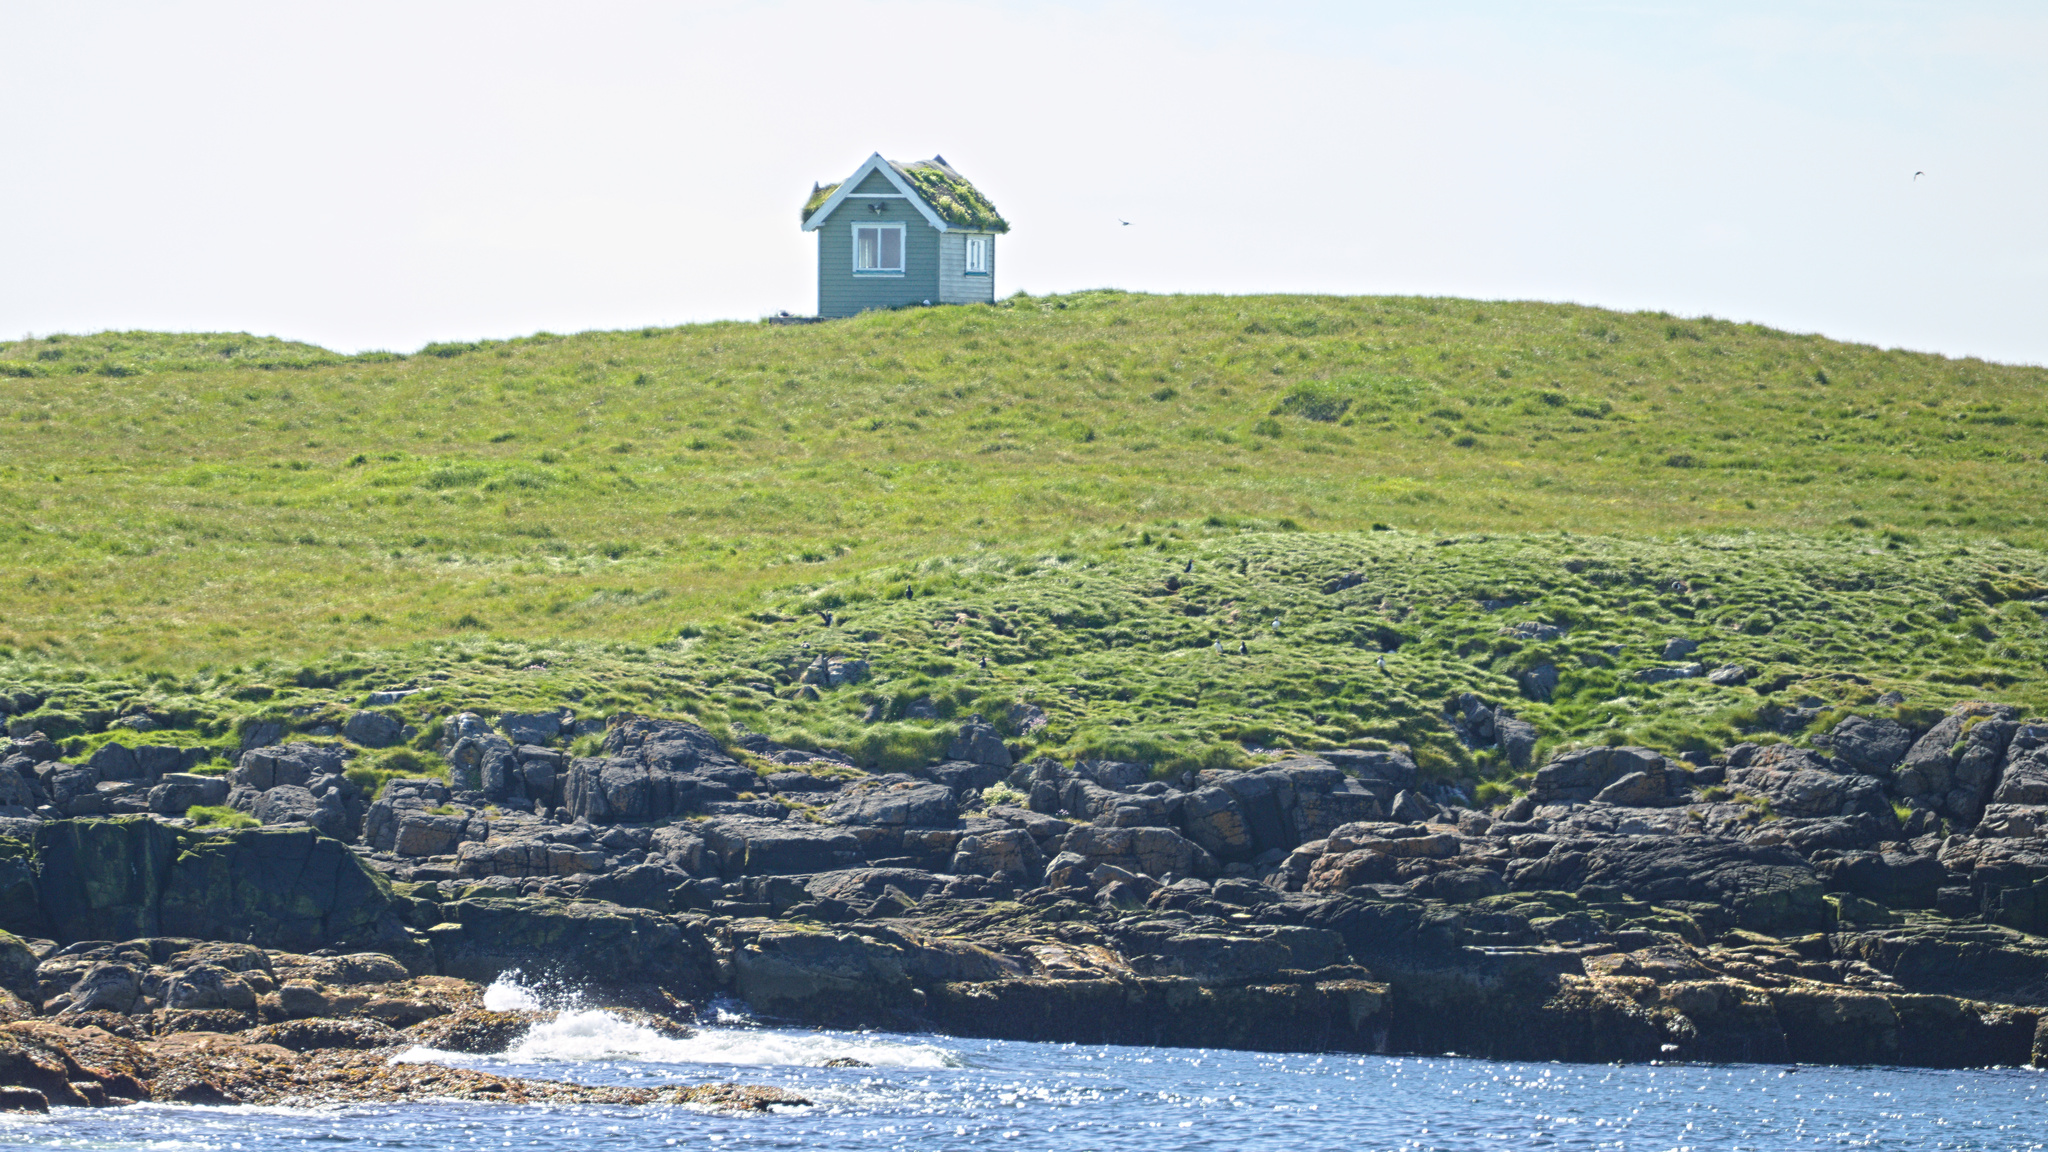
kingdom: Animalia
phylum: Chordata
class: Aves
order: Charadriiformes
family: Alcidae
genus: Fratercula
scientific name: Fratercula arctica
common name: Atlantic puffin
